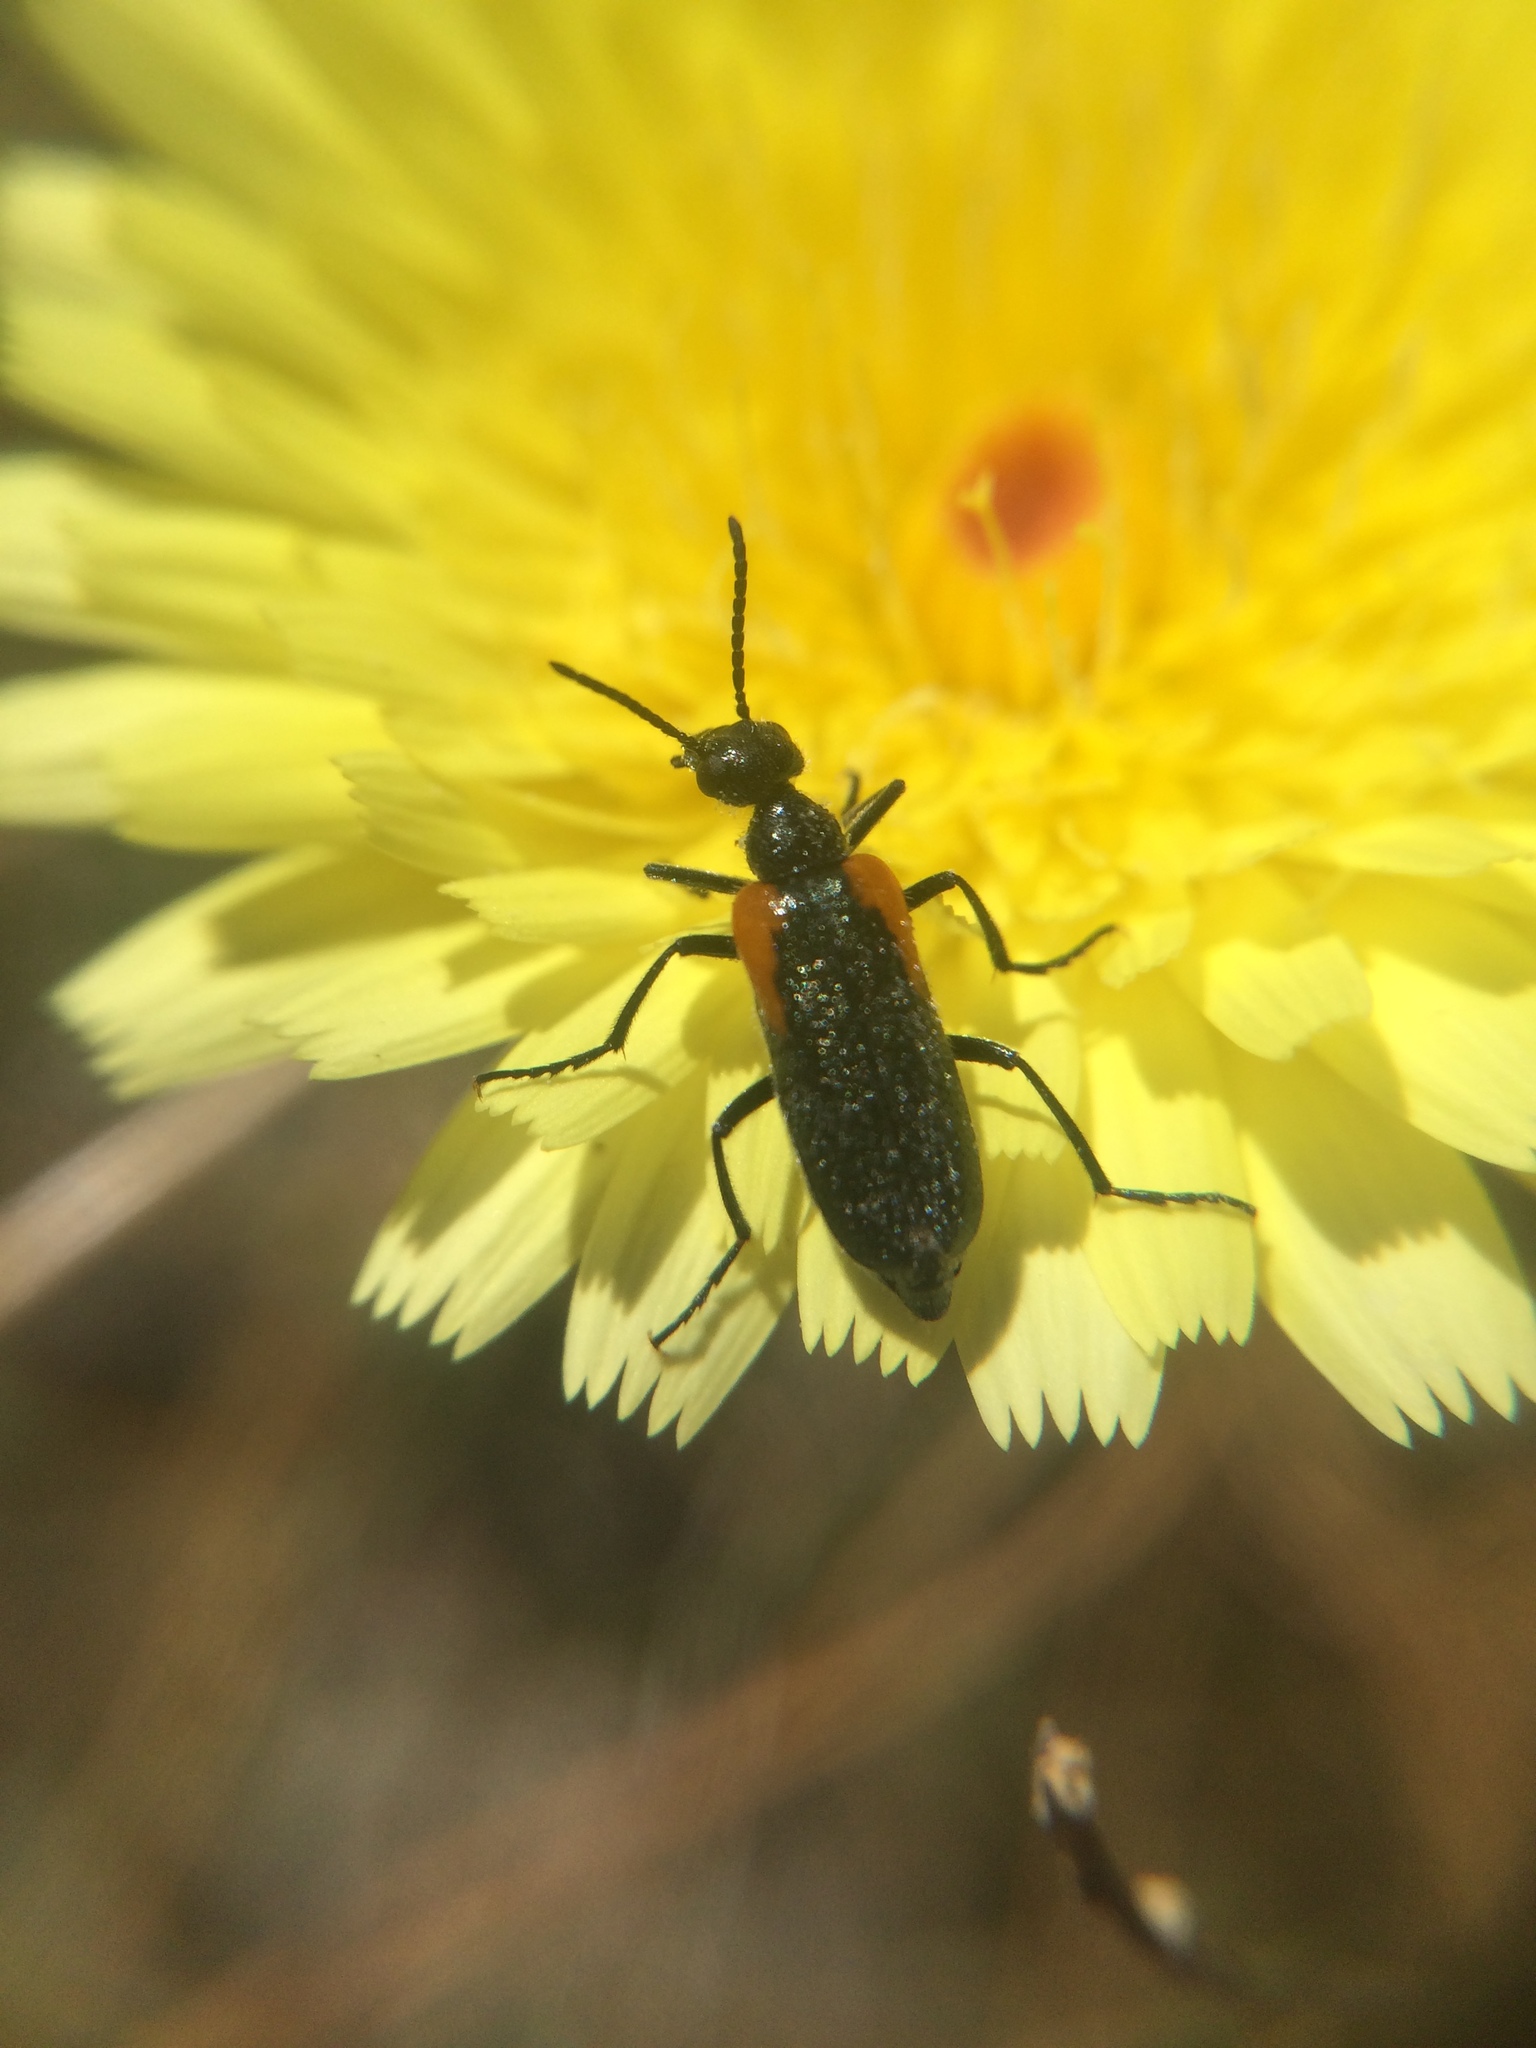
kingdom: Animalia
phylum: Arthropoda
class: Insecta
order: Coleoptera
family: Meloidae
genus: Eupompha
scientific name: Eupompha elegans
